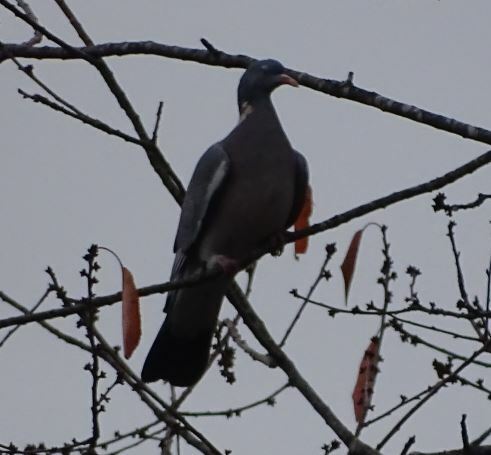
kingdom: Animalia
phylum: Chordata
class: Aves
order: Columbiformes
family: Columbidae
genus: Columba
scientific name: Columba palumbus
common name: Common wood pigeon
